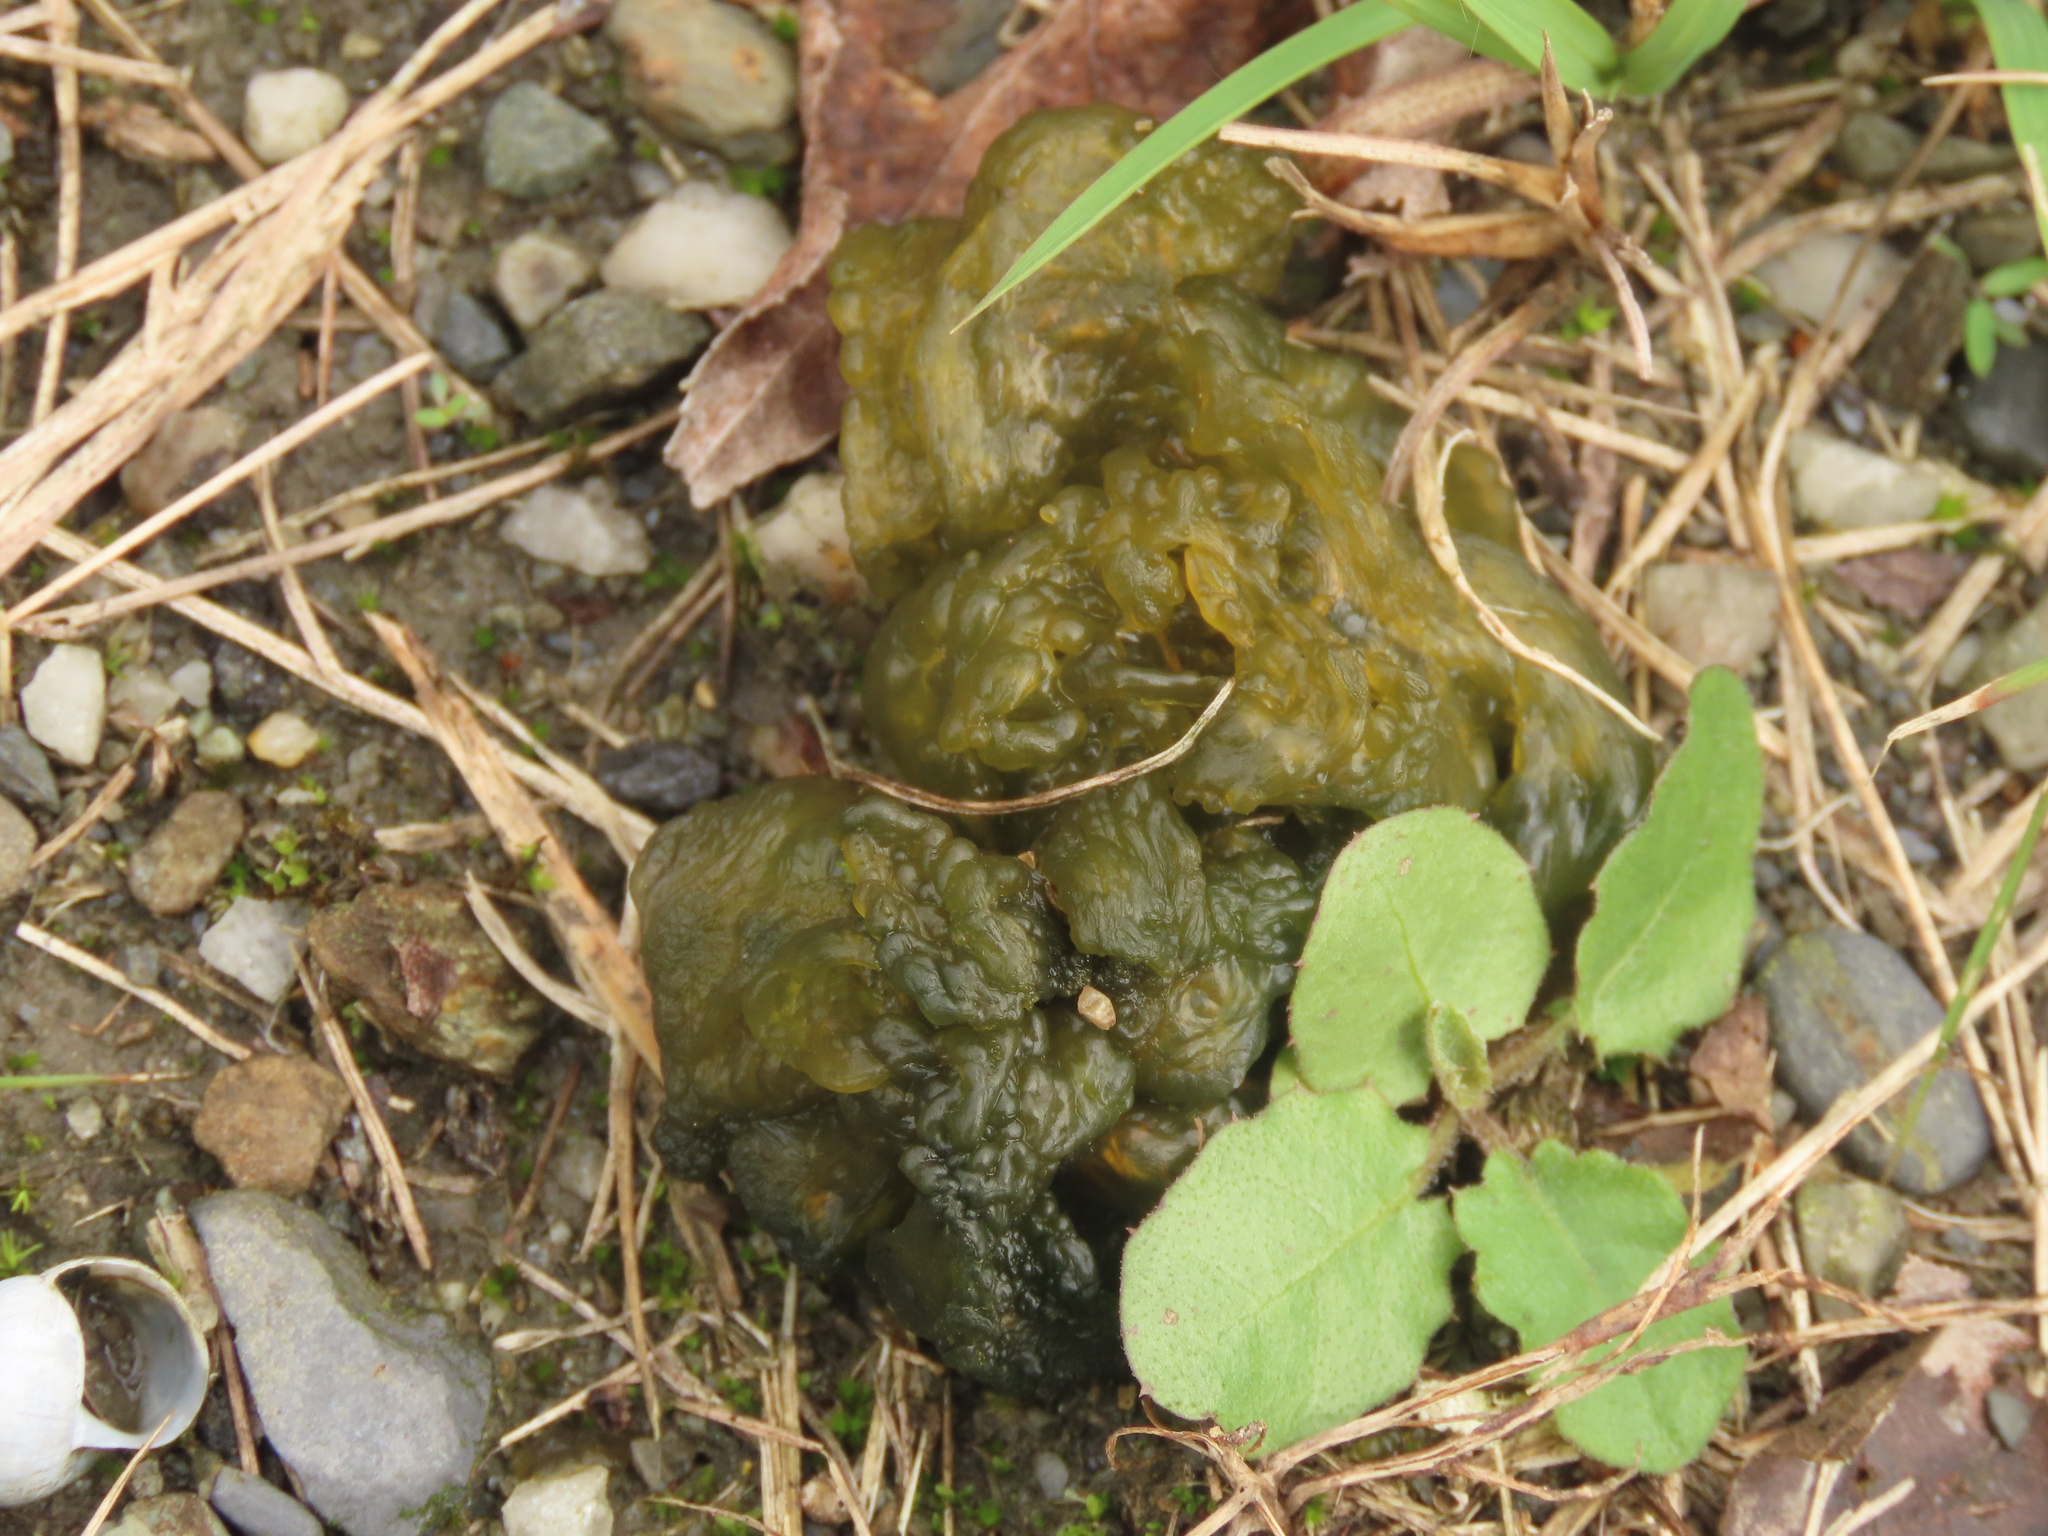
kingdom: Bacteria
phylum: Cyanobacteria
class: Cyanobacteriia
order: Cyanobacteriales
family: Nostocaceae
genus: Nostoc
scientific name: Nostoc commune
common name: Star jelly
